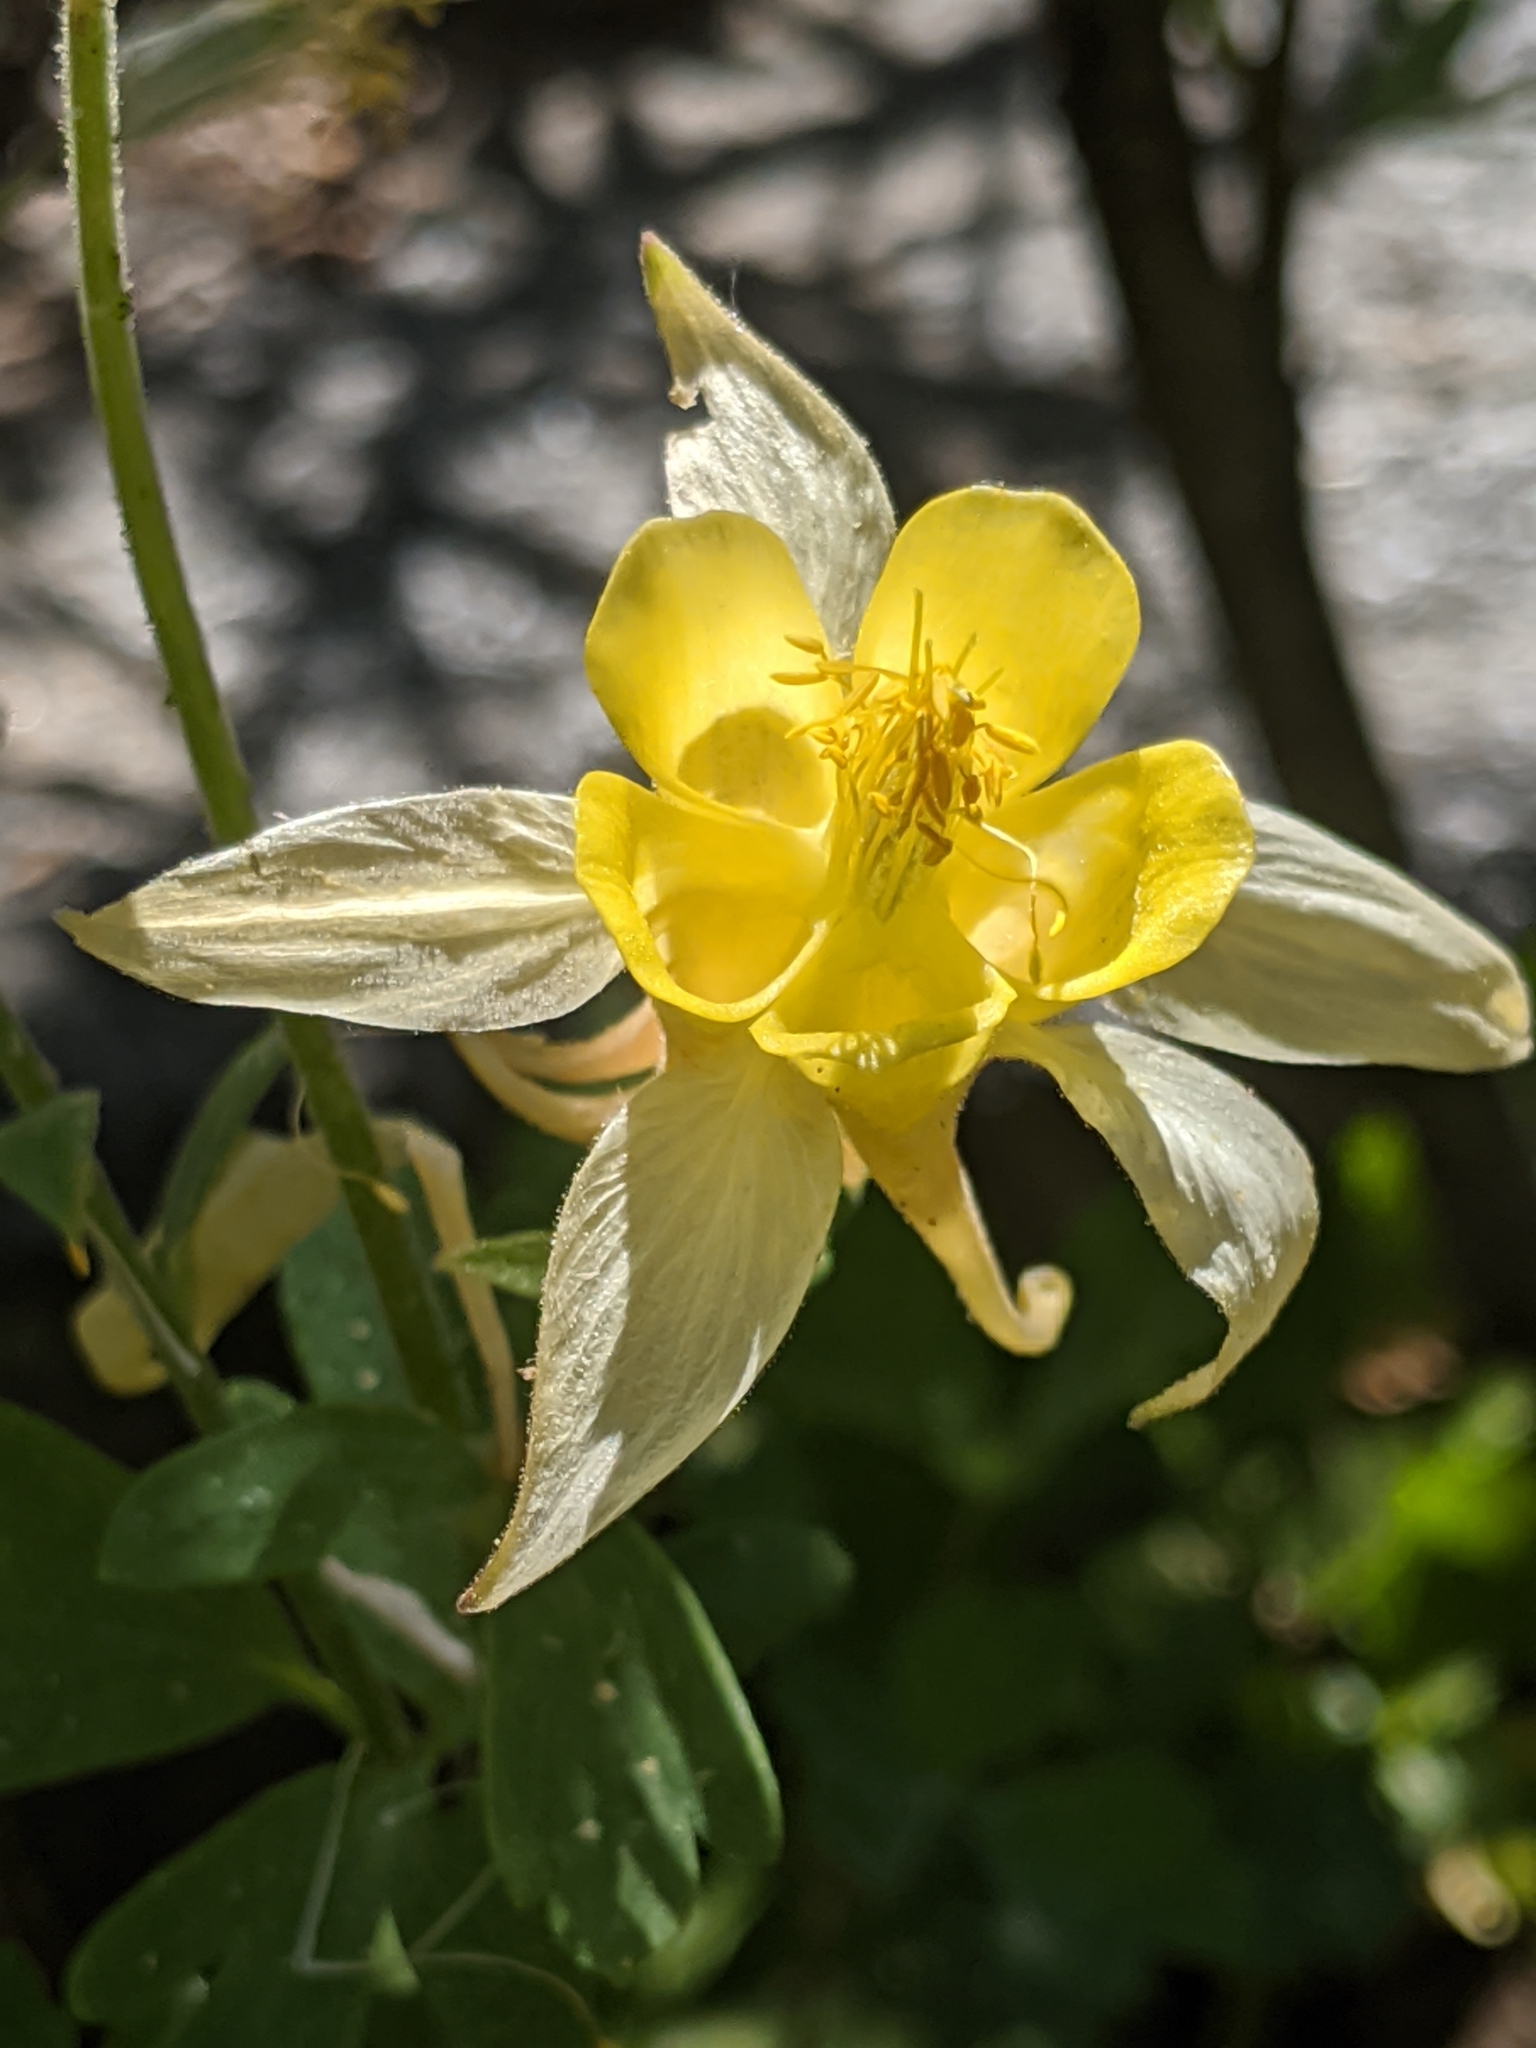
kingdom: Plantae
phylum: Tracheophyta
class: Magnoliopsida
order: Ranunculales
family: Ranunculaceae
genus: Aquilegia
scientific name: Aquilegia pubescens
